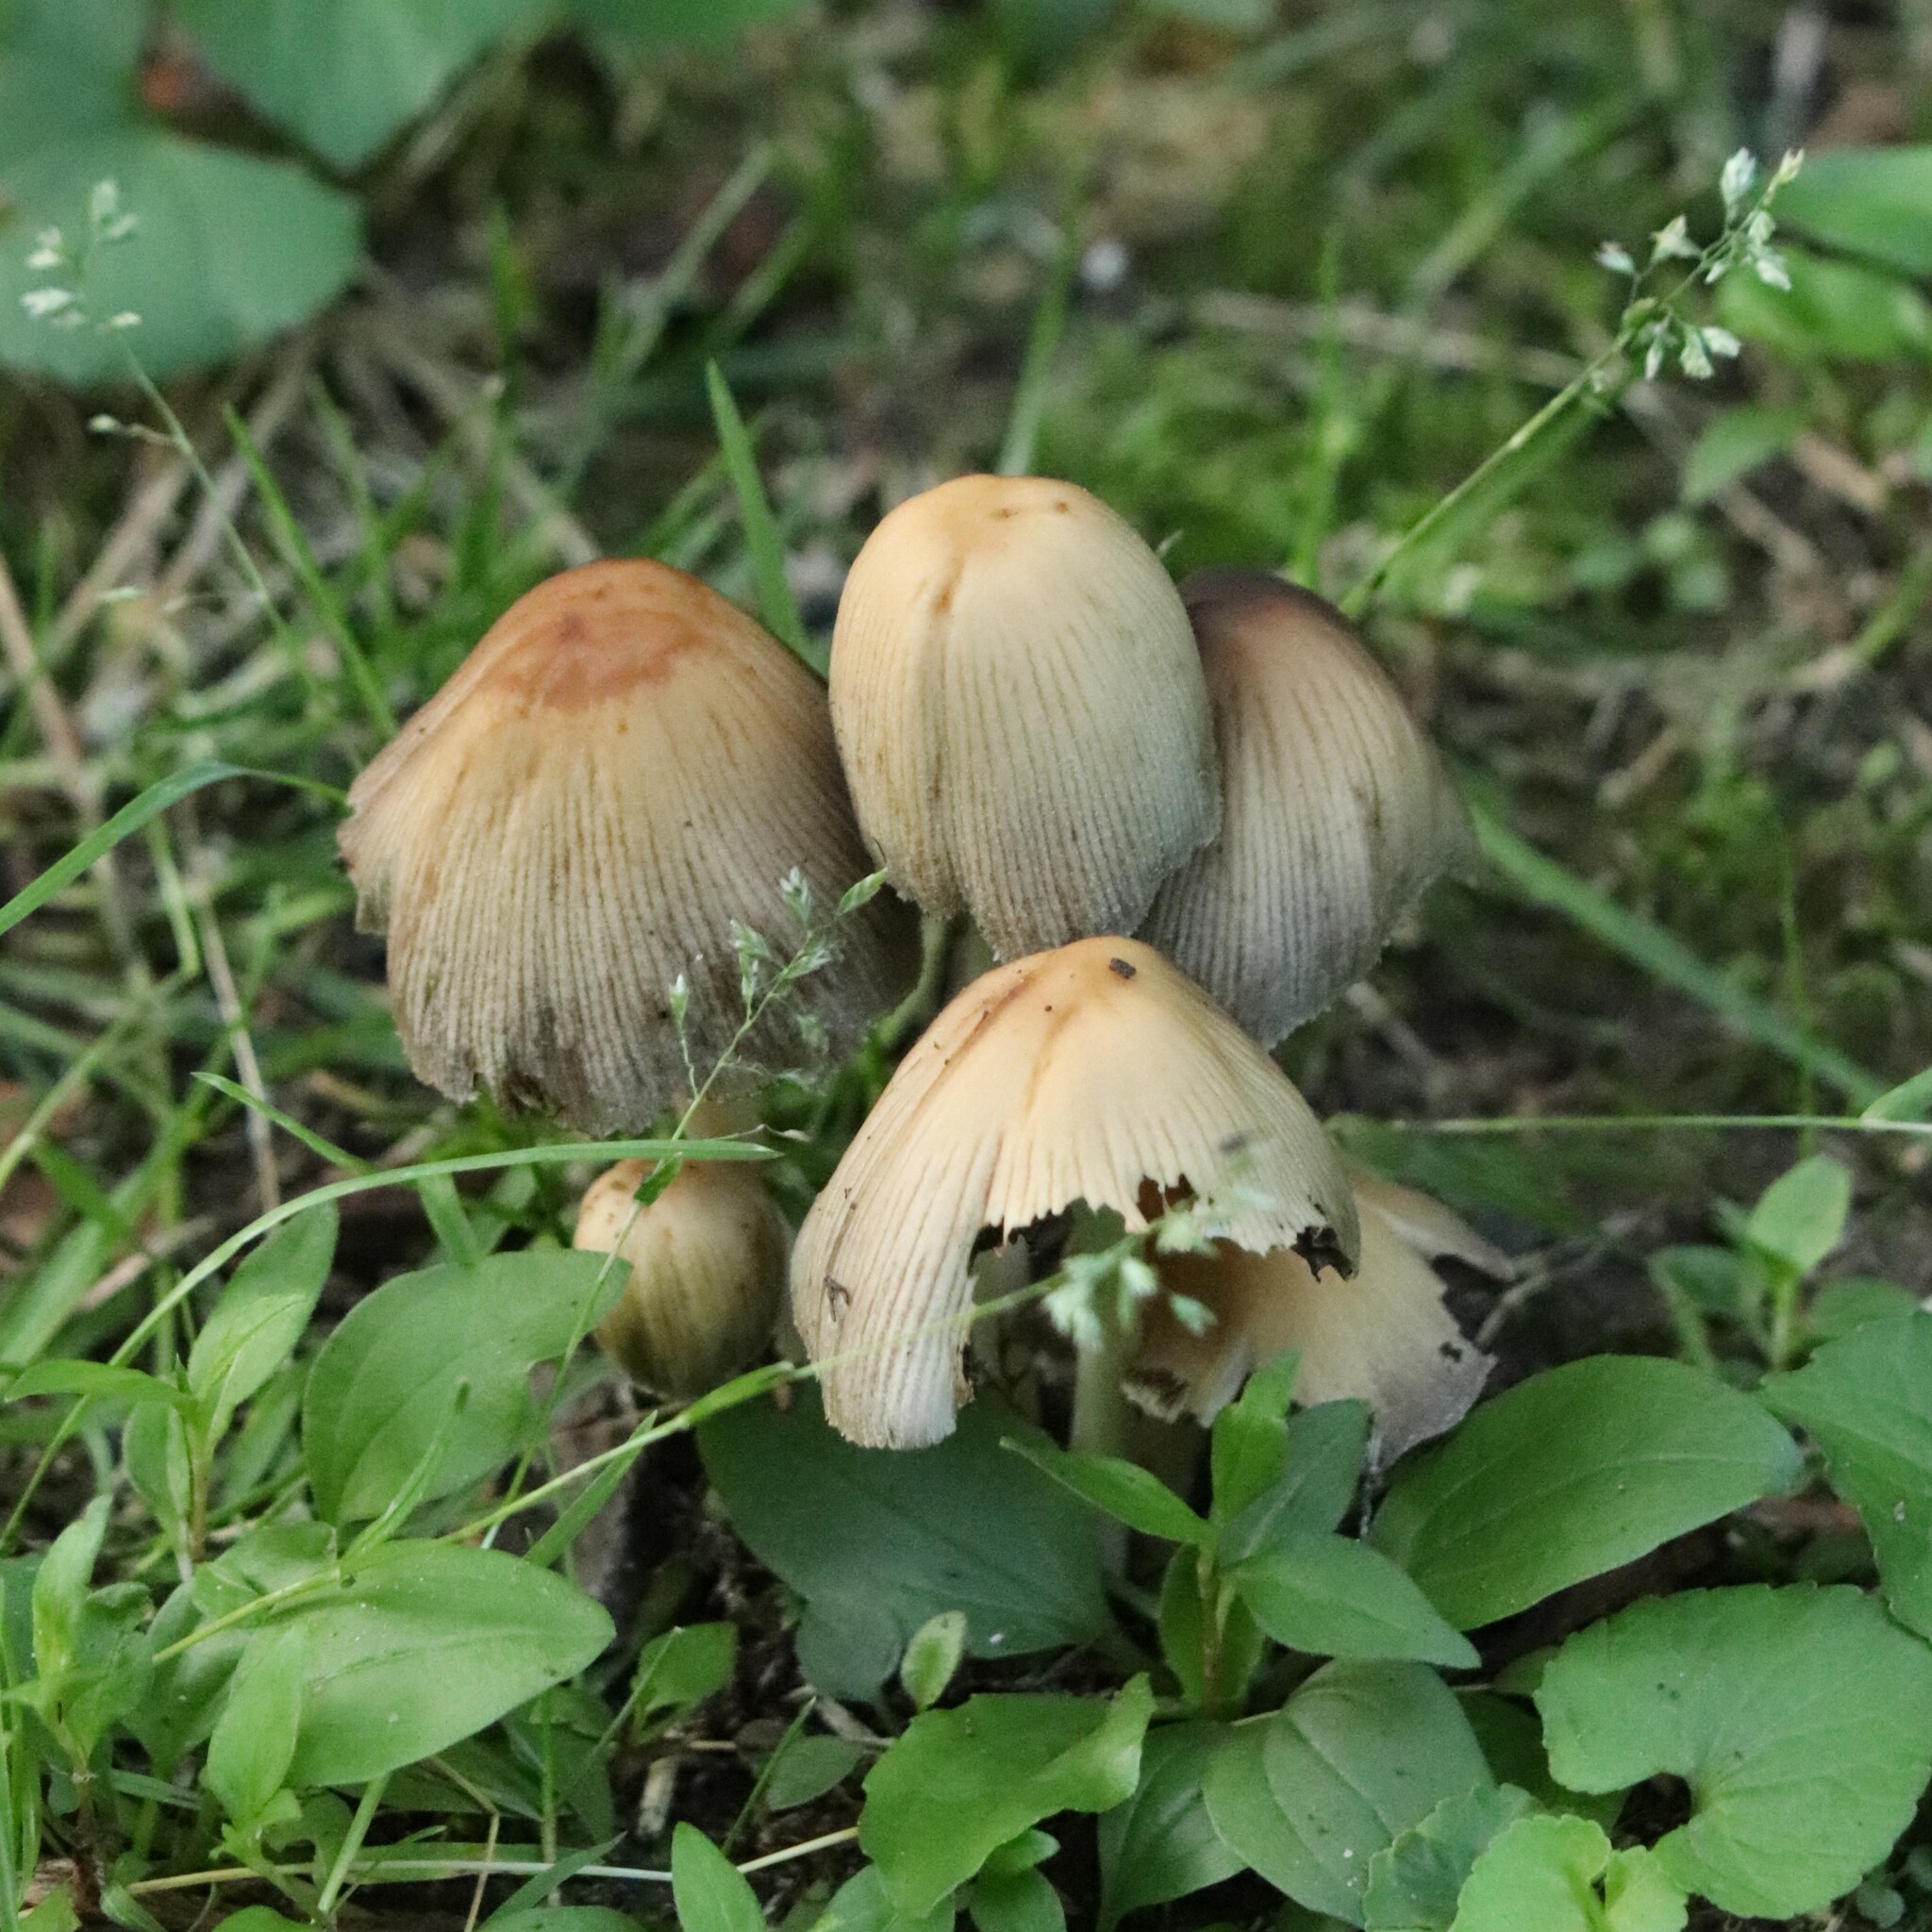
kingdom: Fungi
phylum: Basidiomycota
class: Agaricomycetes
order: Agaricales
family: Psathyrellaceae
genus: Coprinellus
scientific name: Coprinellus micaceus
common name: Glistening ink-cap
